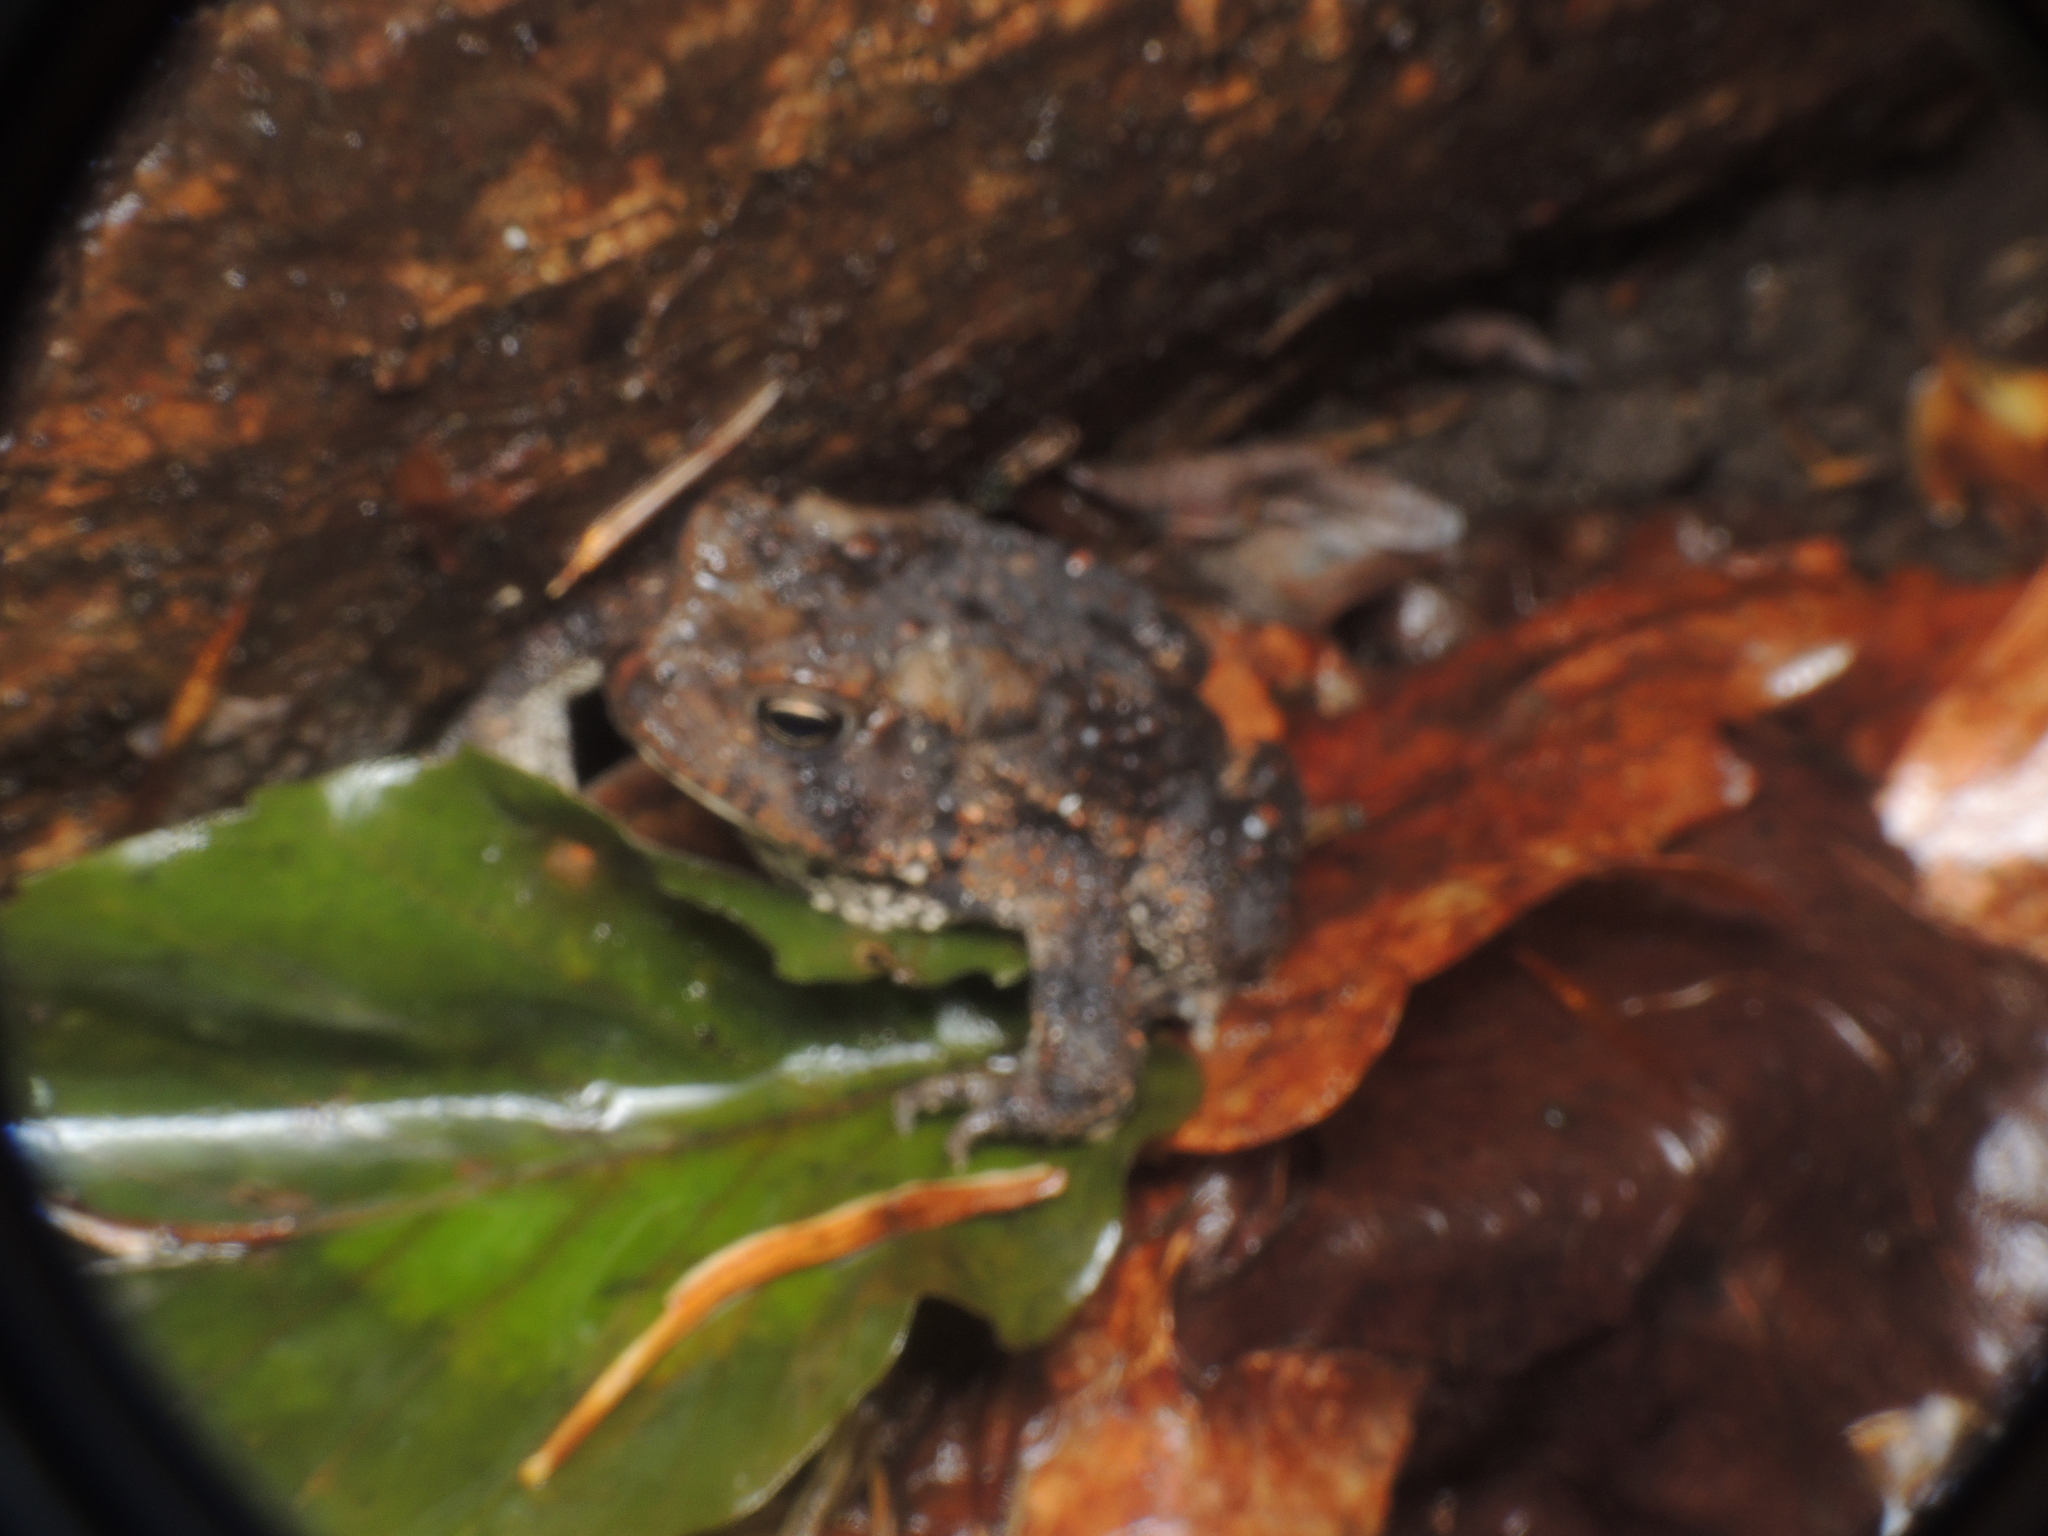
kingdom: Animalia
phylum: Chordata
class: Amphibia
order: Anura
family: Bufonidae
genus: Anaxyrus
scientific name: Anaxyrus americanus
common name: American toad
